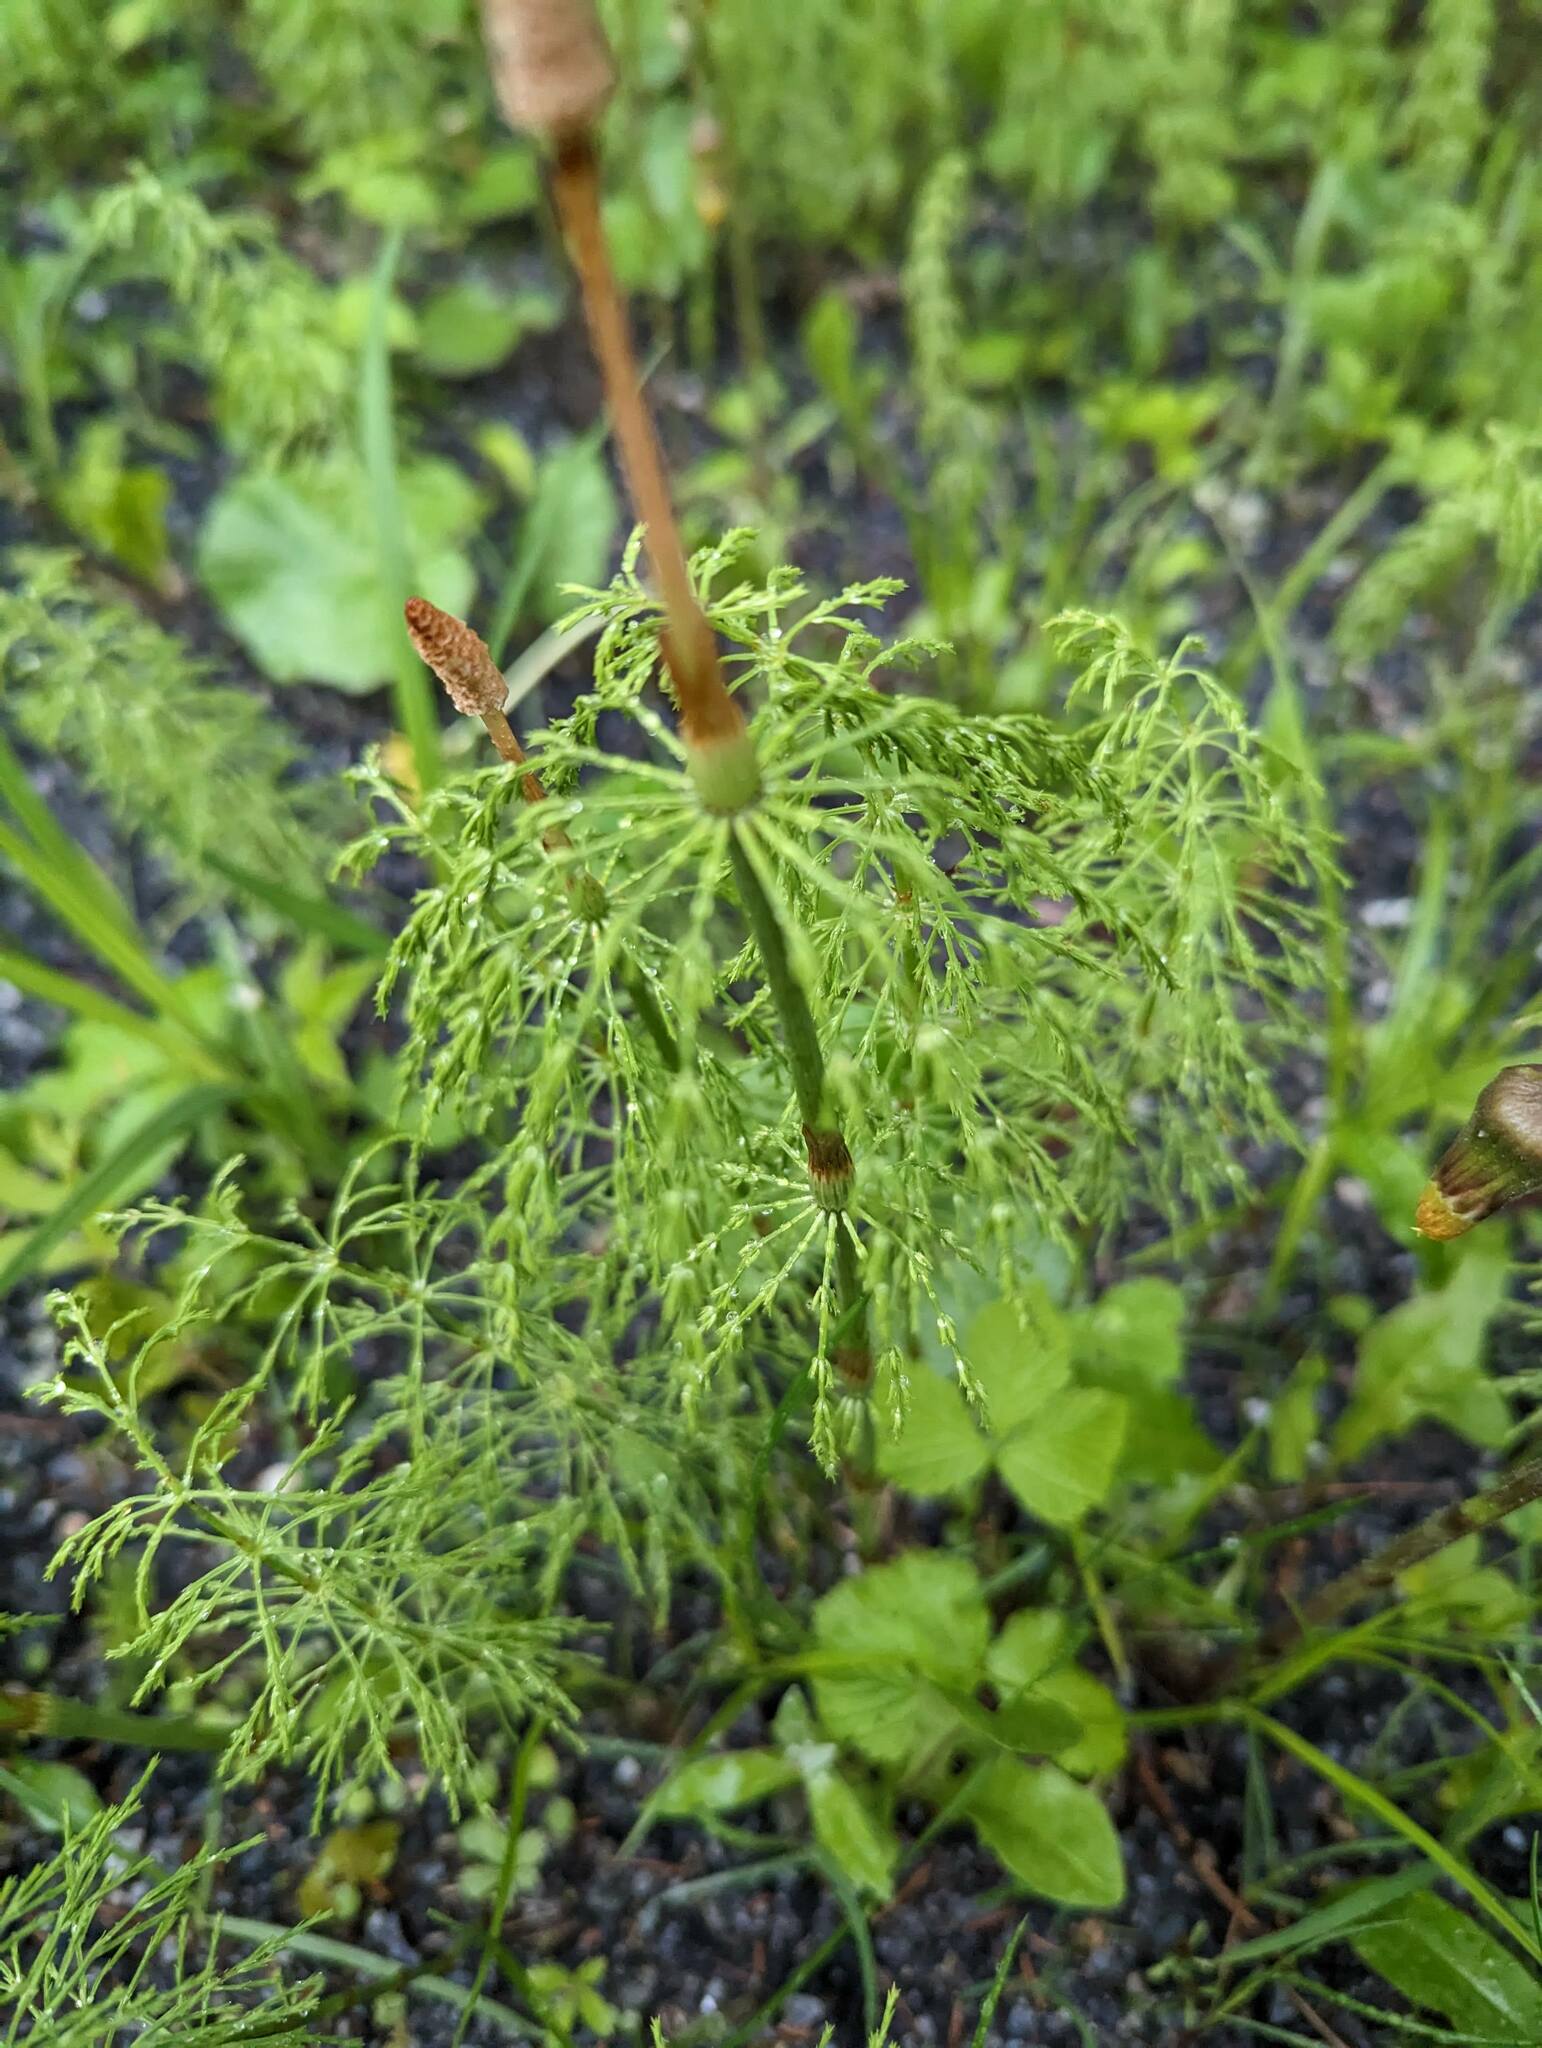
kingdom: Plantae
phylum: Tracheophyta
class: Polypodiopsida
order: Equisetales
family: Equisetaceae
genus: Equisetum
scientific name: Equisetum sylvaticum
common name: Wood horsetail
